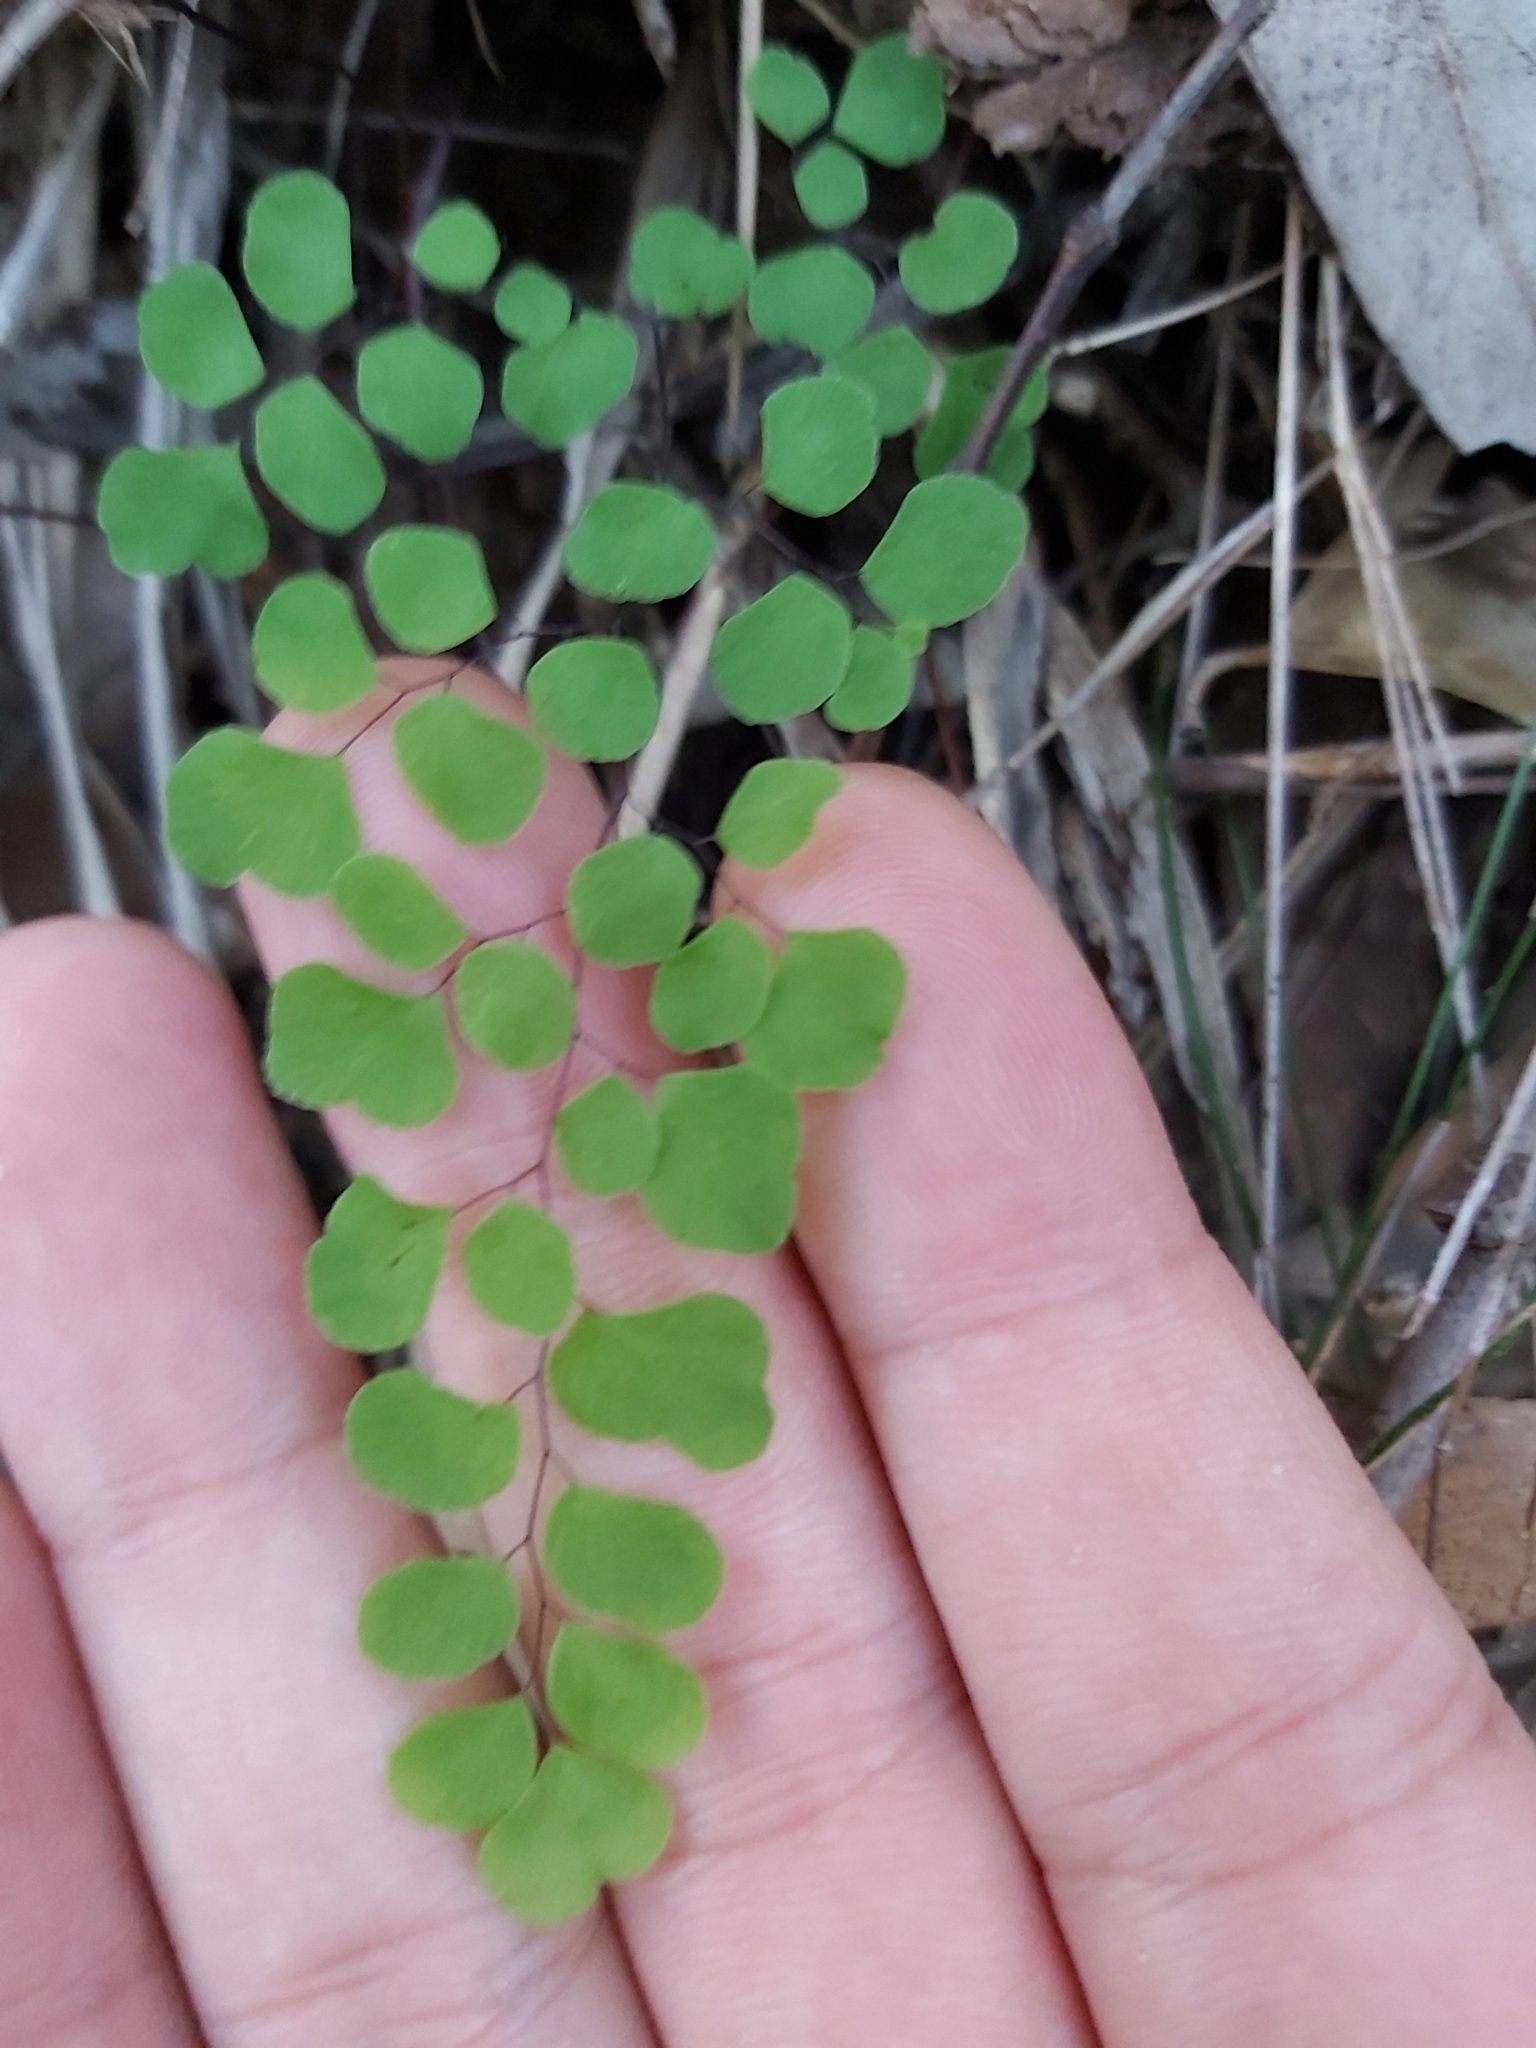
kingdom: Plantae
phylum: Tracheophyta
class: Polypodiopsida
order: Polypodiales
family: Pteridaceae
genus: Adiantum
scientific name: Adiantum aethiopicum
